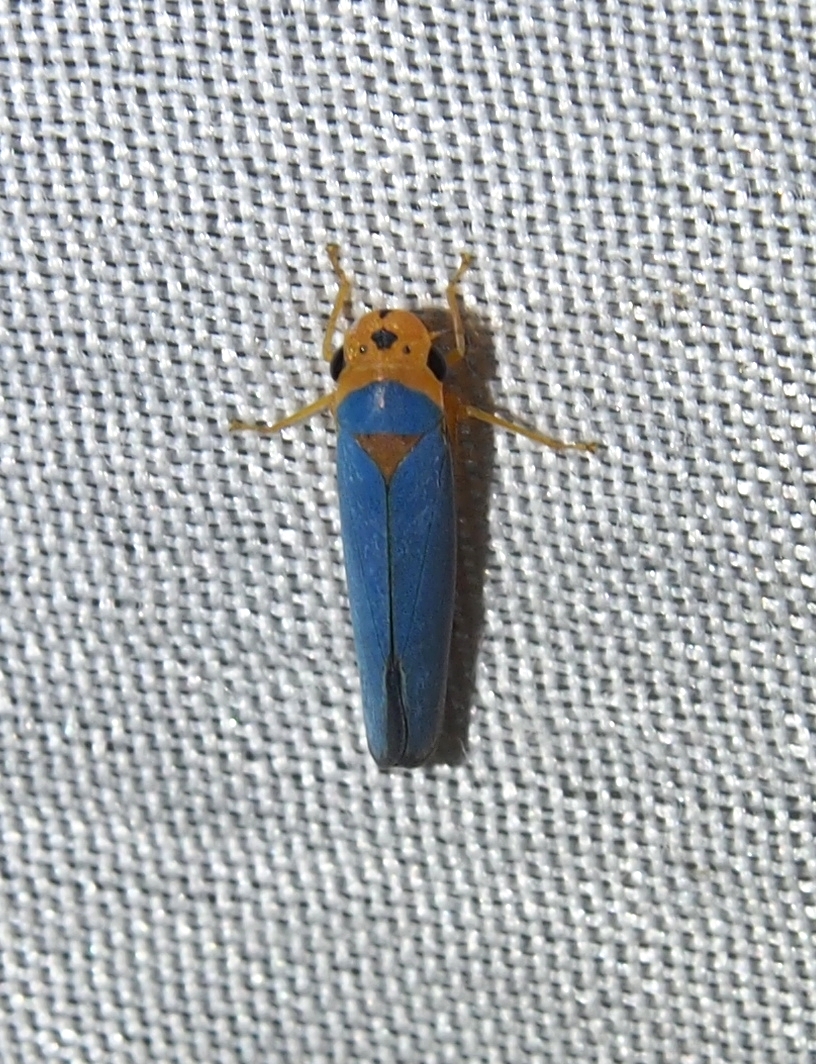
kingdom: Animalia
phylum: Arthropoda
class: Insecta
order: Hemiptera
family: Cicadellidae
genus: Macunolla
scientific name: Macunolla ventralis
